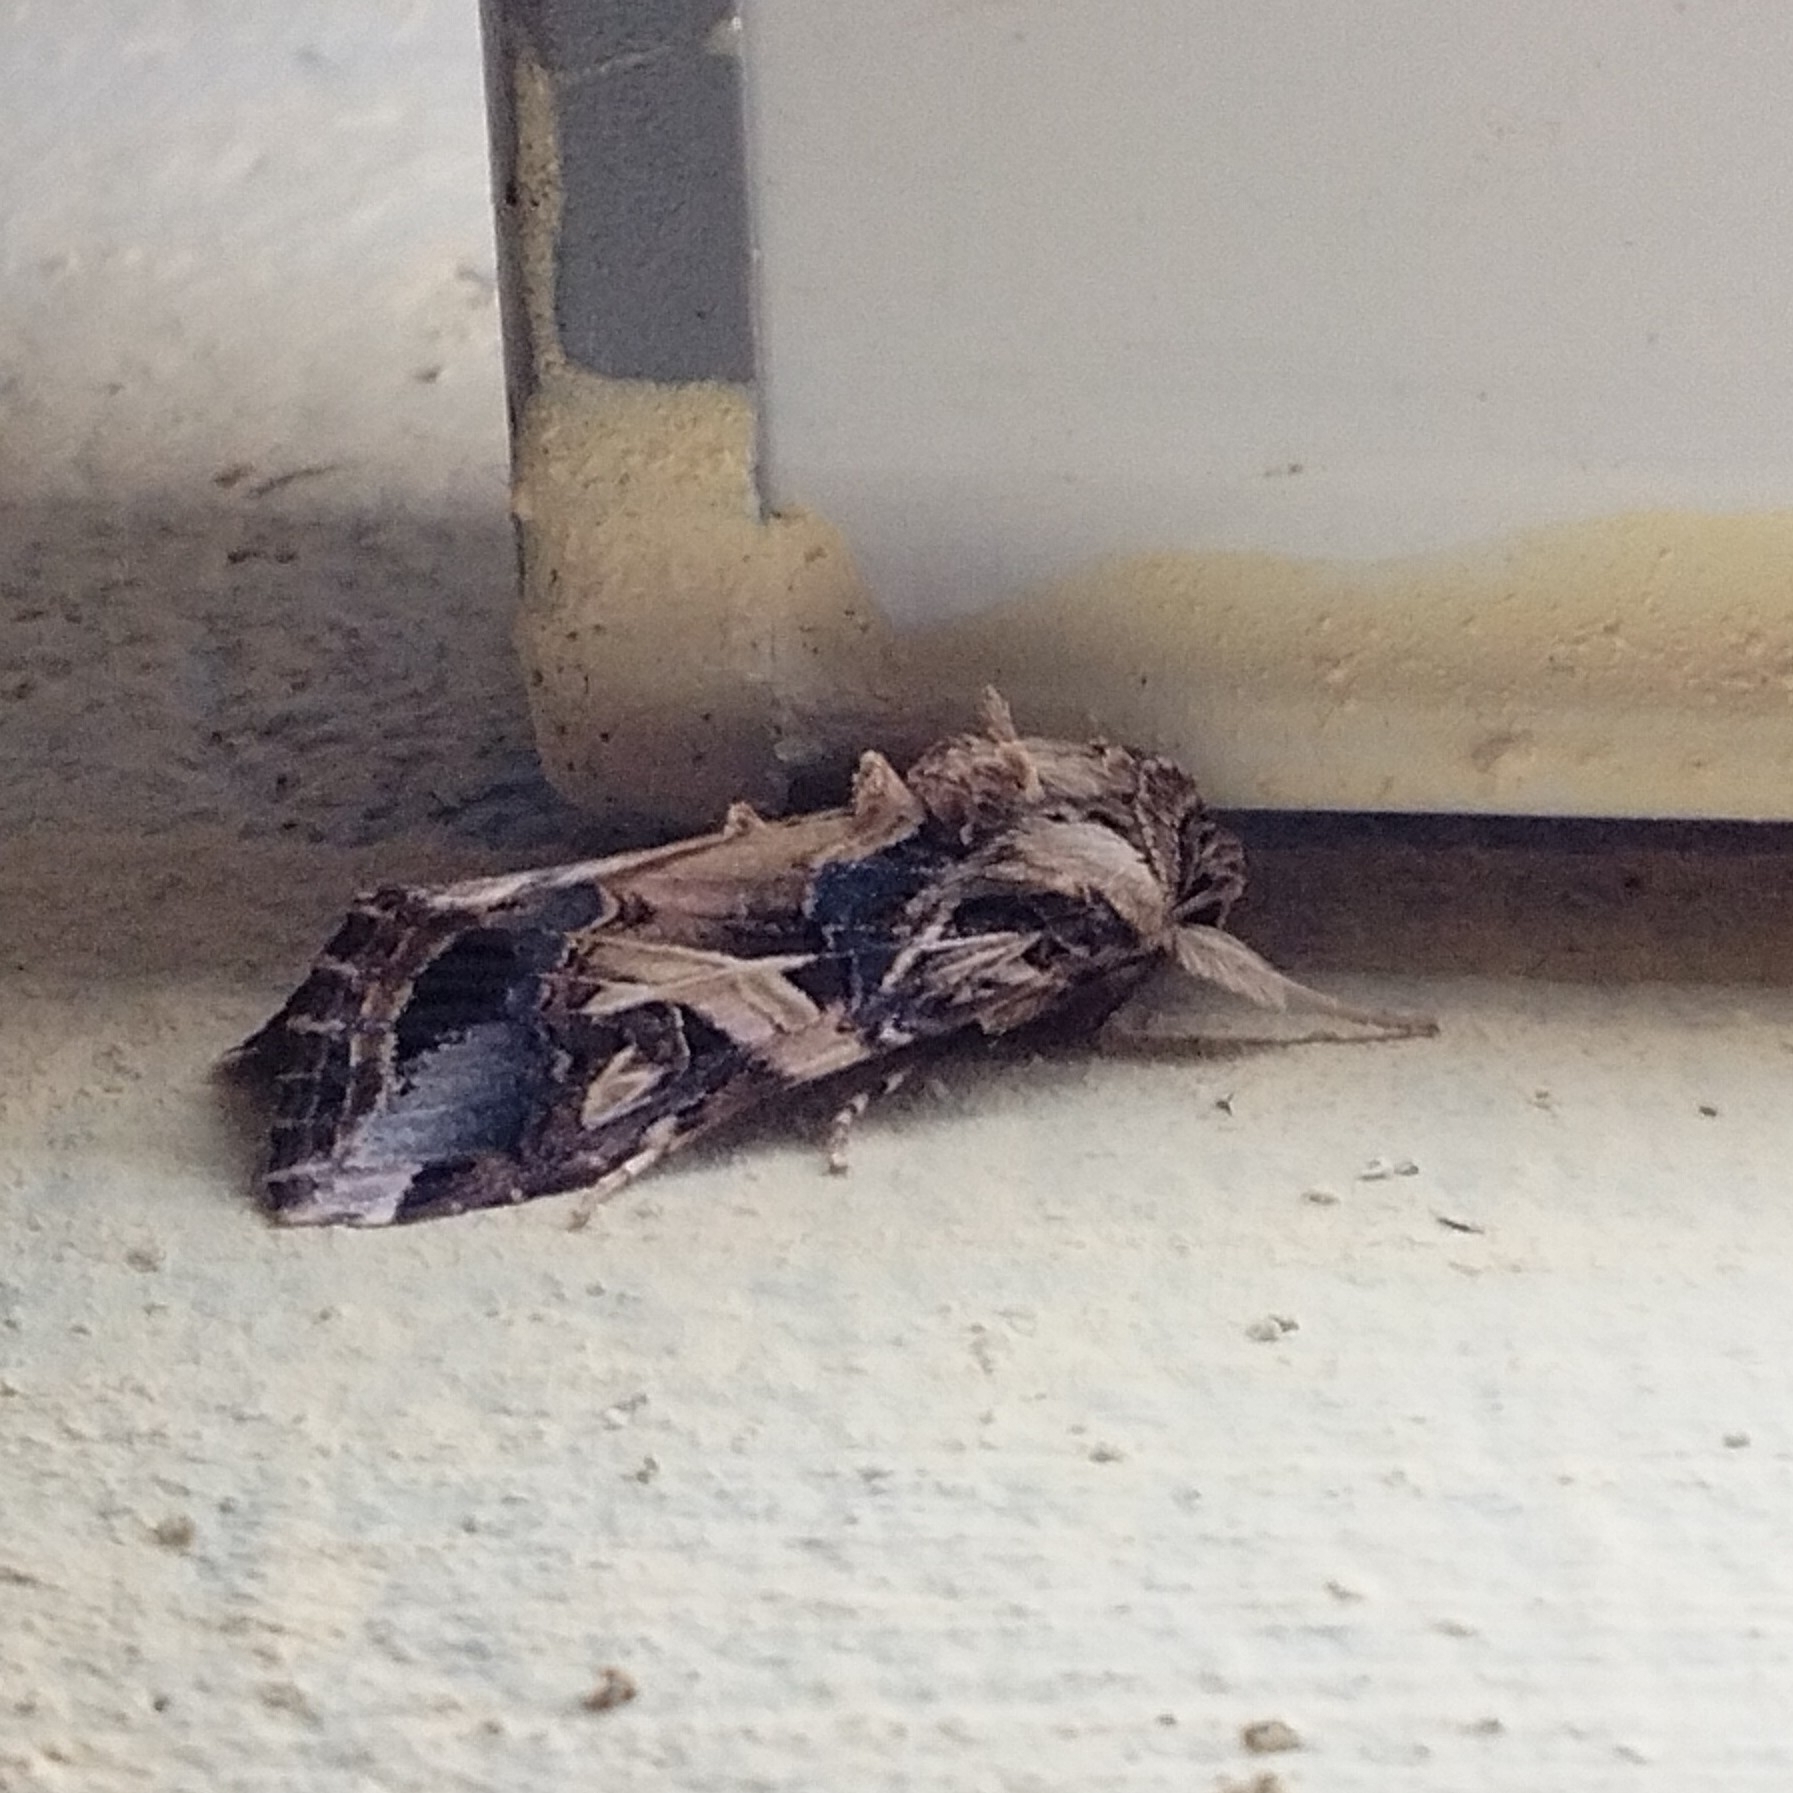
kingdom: Animalia
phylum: Arthropoda
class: Insecta
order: Lepidoptera
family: Noctuidae
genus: Spodoptera
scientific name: Spodoptera litura
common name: Asian cotton leafworm
